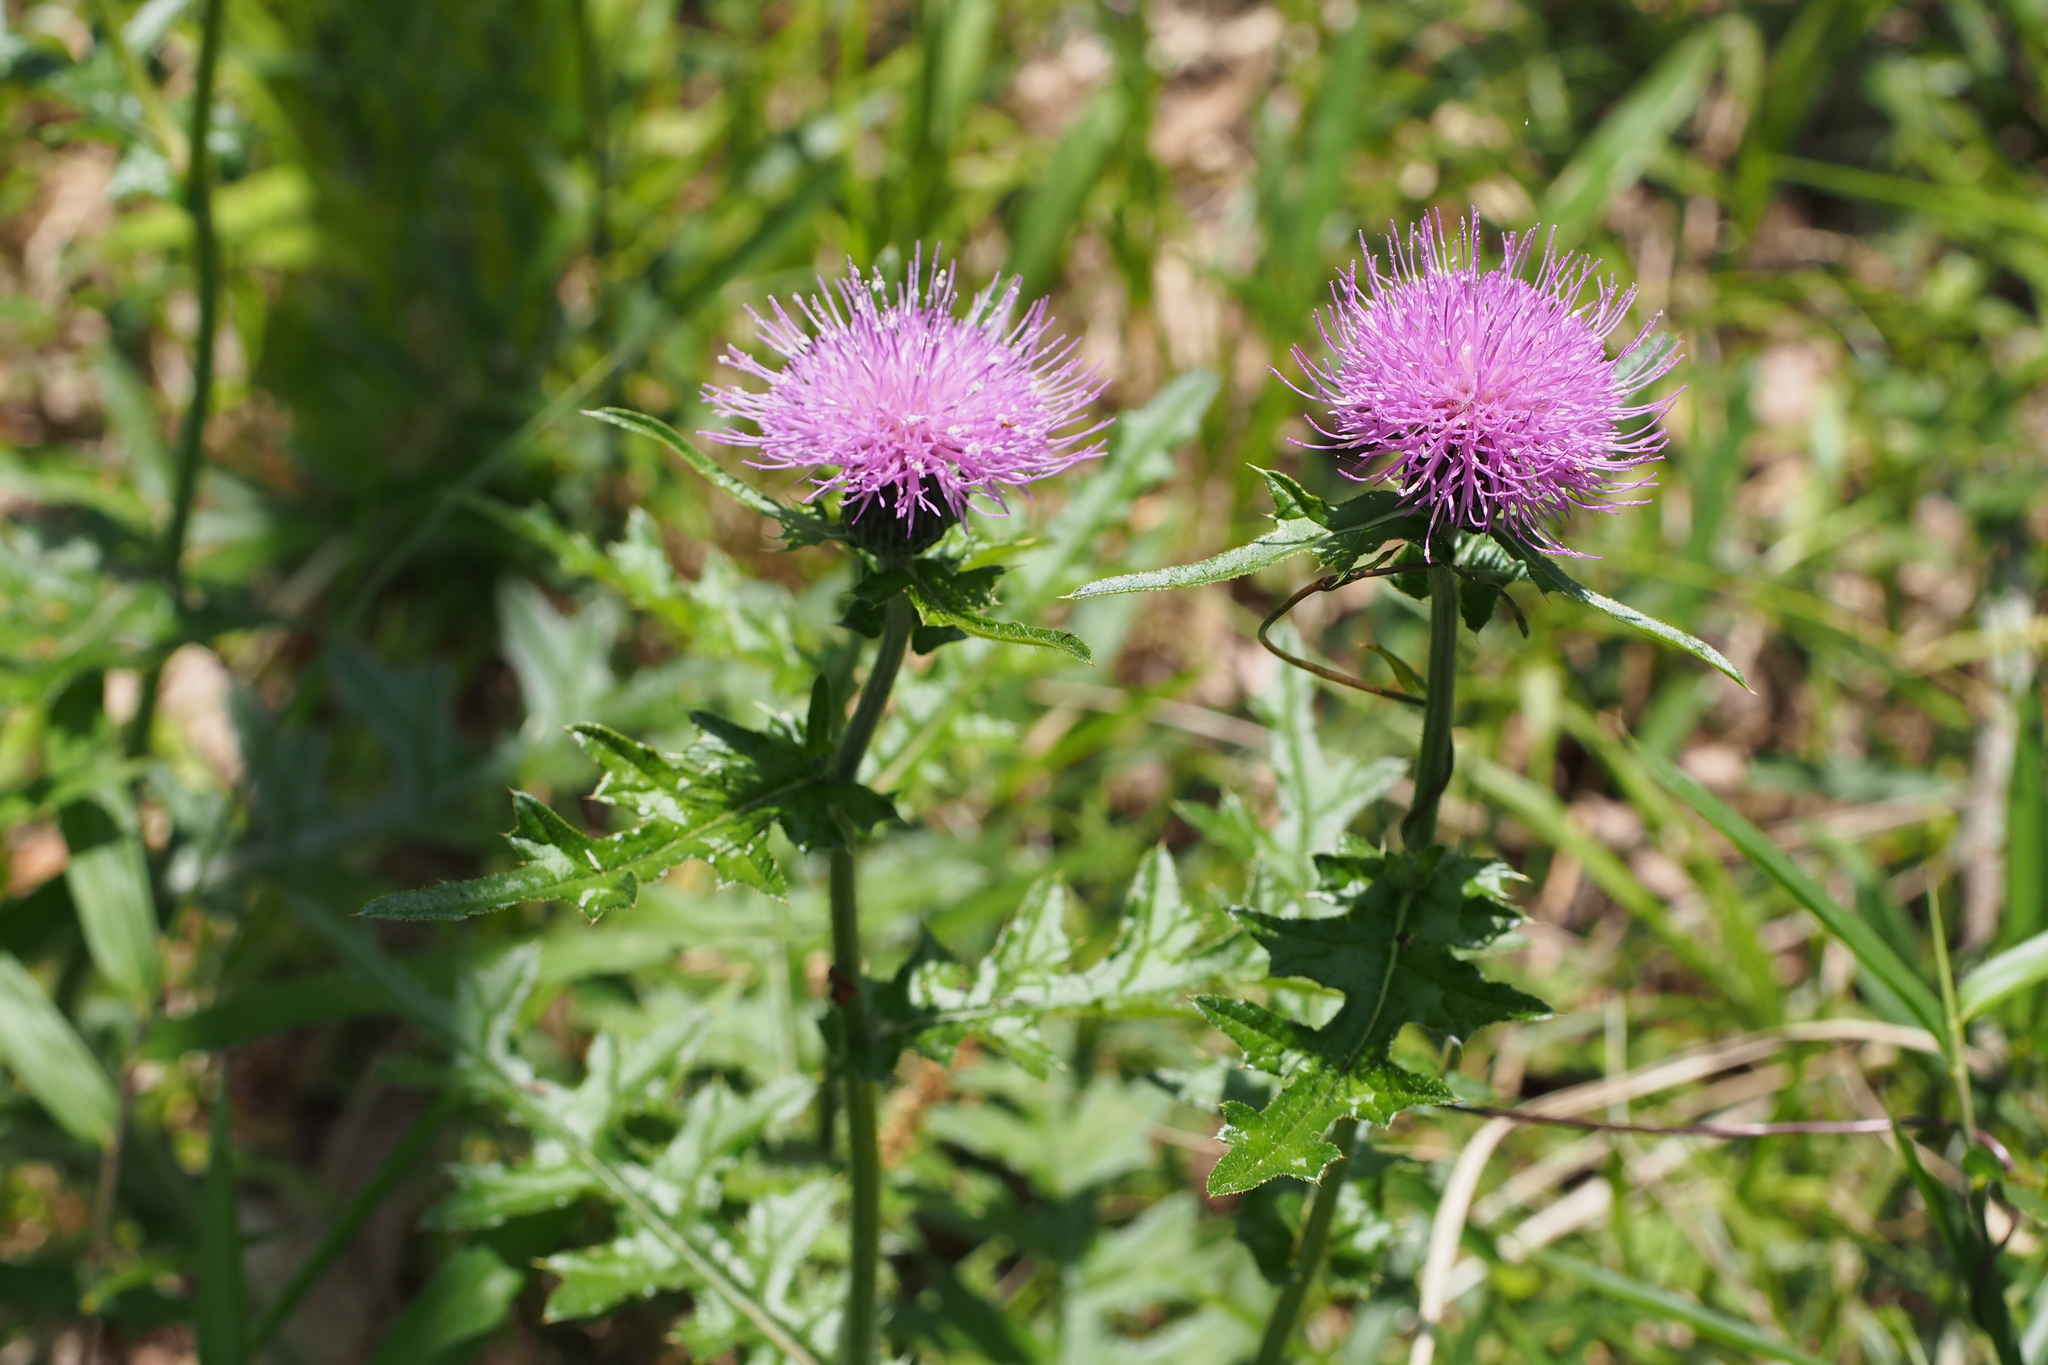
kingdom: Plantae
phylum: Tracheophyta
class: Magnoliopsida
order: Asterales
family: Asteraceae
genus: Cirsium
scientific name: Cirsium japonicum
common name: Japanese thistle
